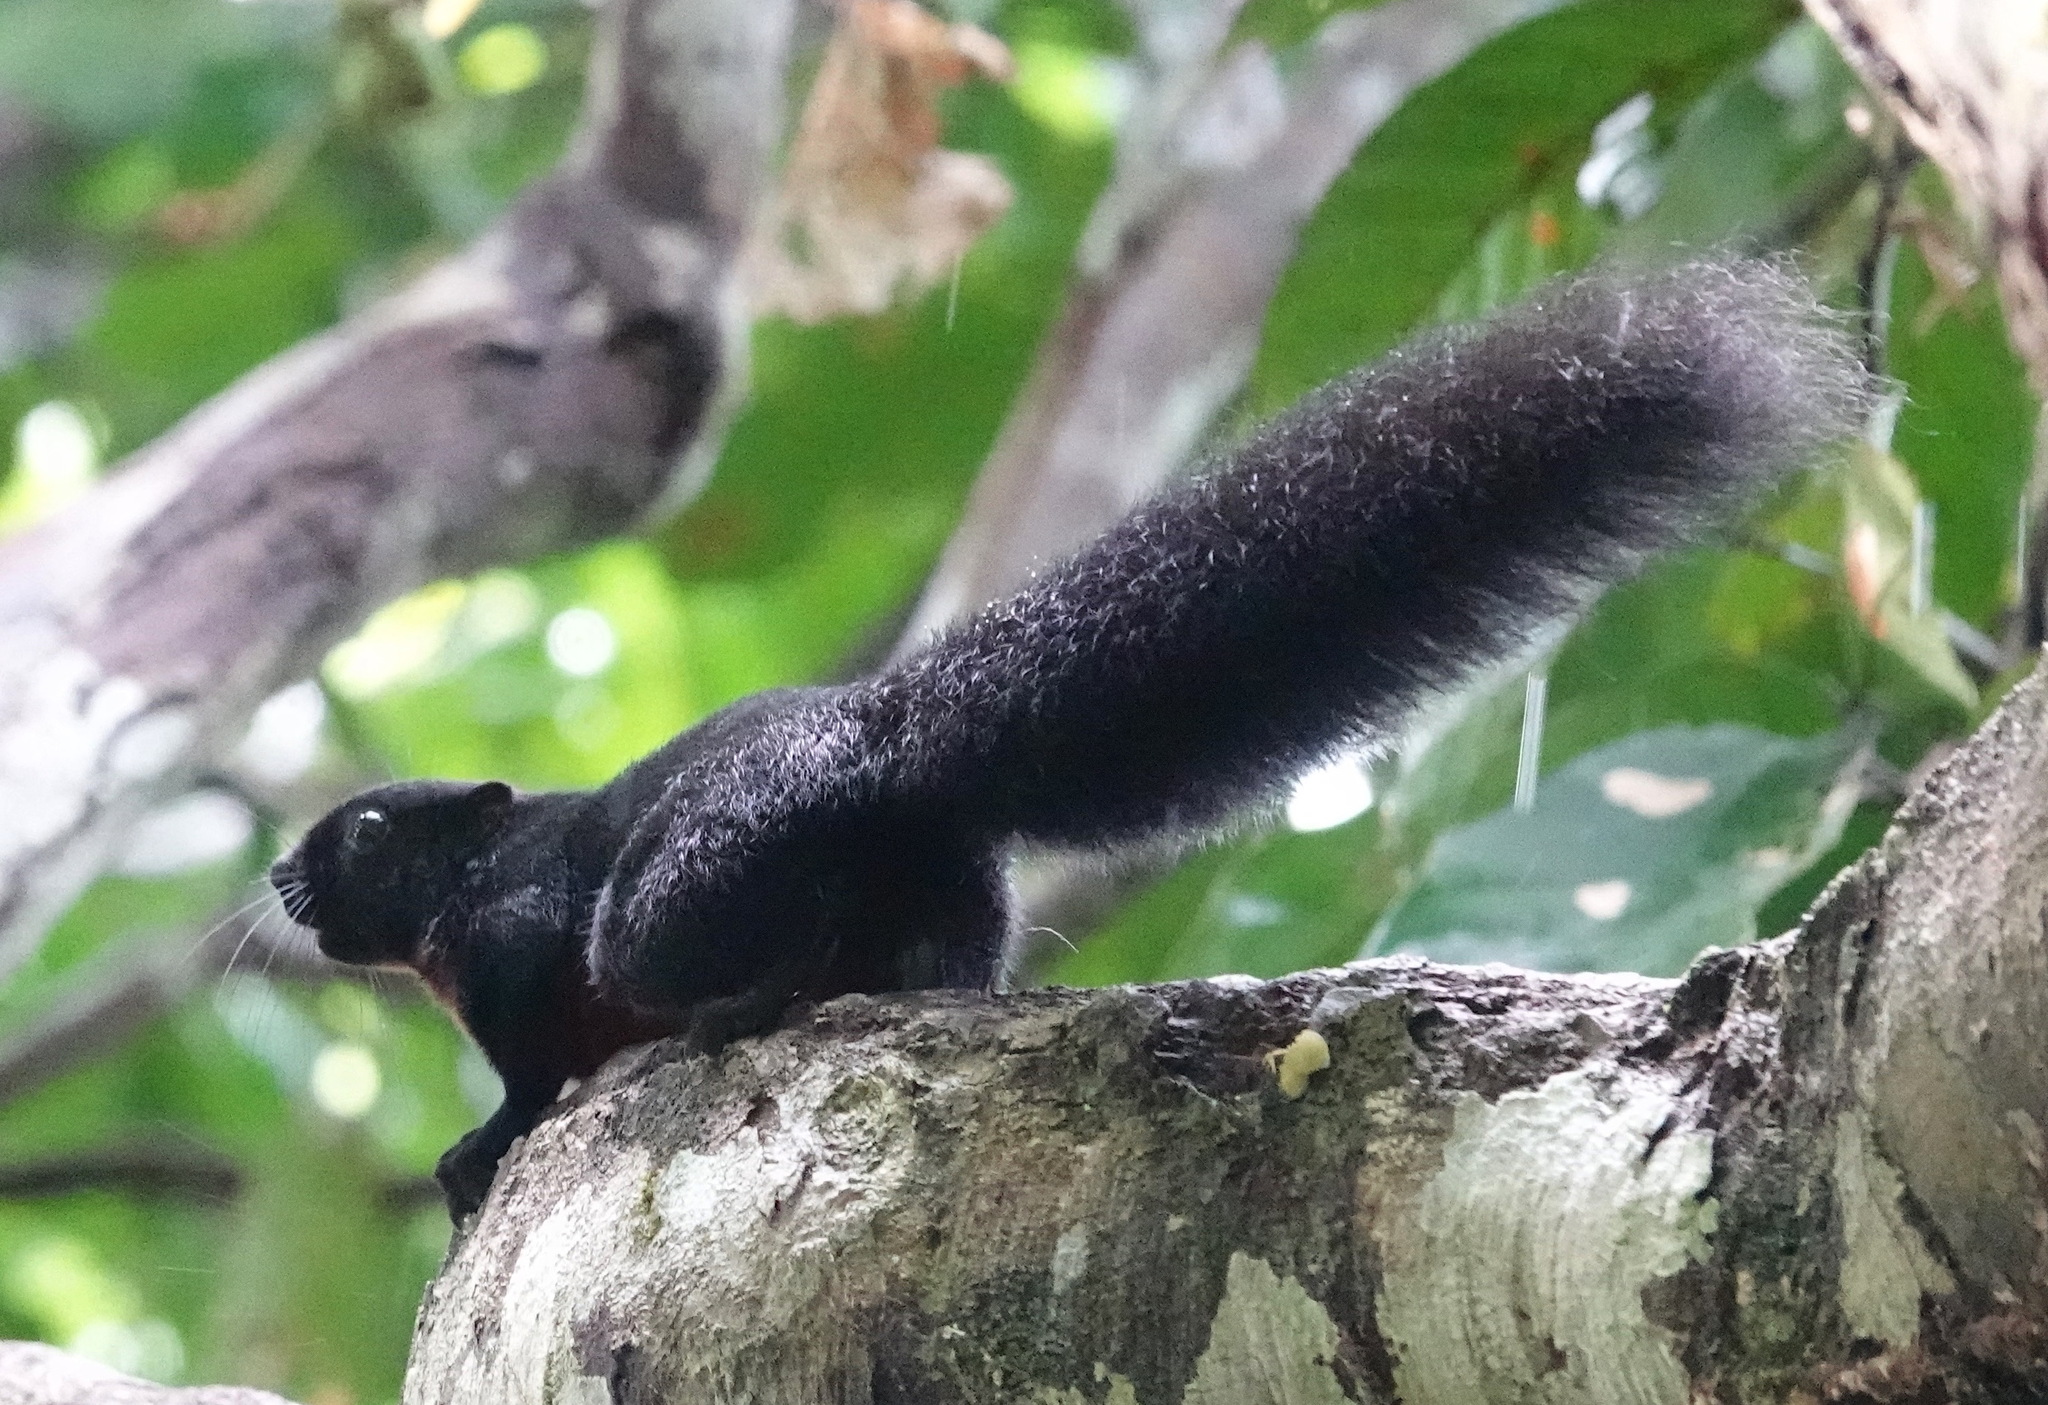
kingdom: Animalia
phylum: Chordata
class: Mammalia
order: Rodentia
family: Sciuridae
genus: Callosciurus
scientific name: Callosciurus prevostii
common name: Prevost's squirrel
